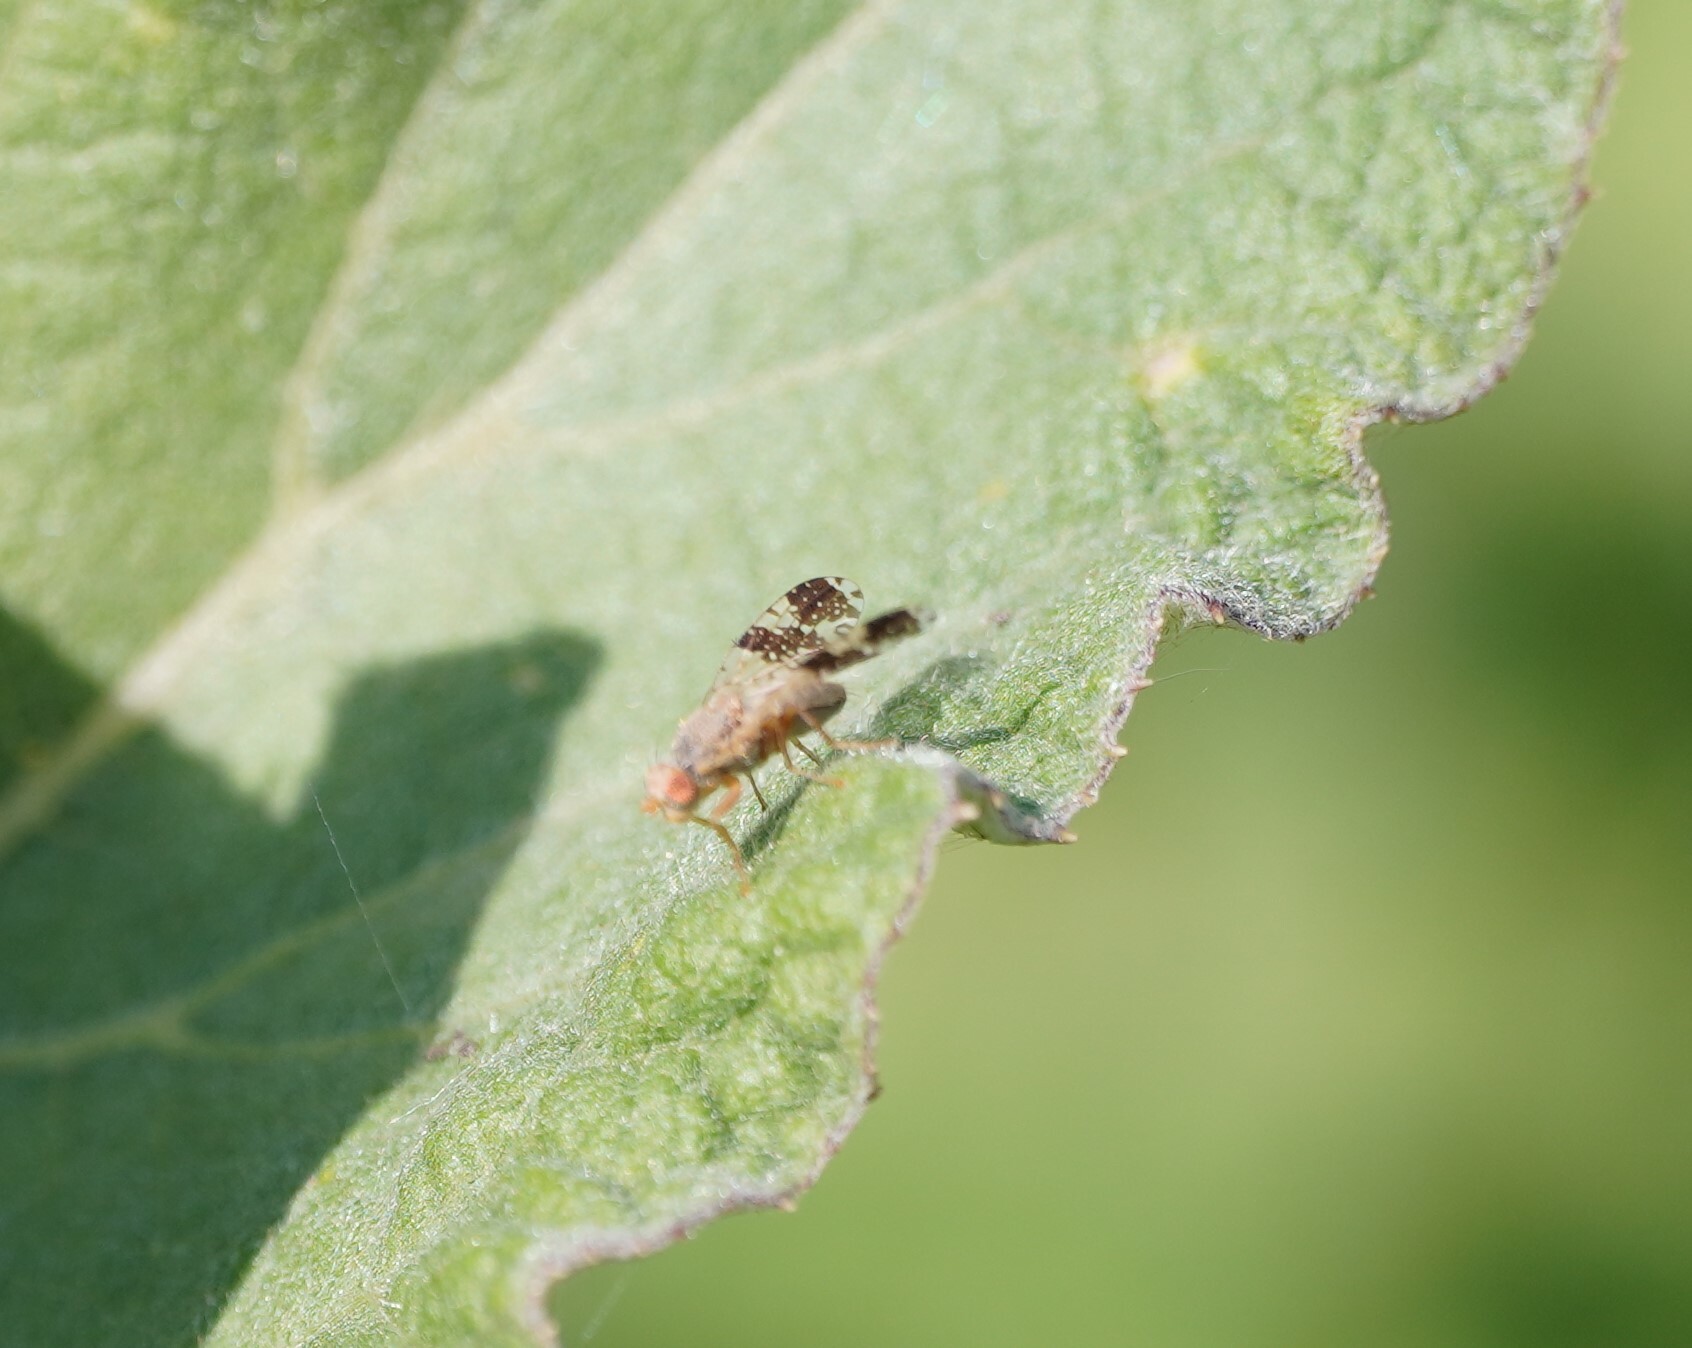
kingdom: Animalia
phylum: Arthropoda
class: Insecta
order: Diptera
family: Tephritidae
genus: Tephritis
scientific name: Tephritis bardanae
